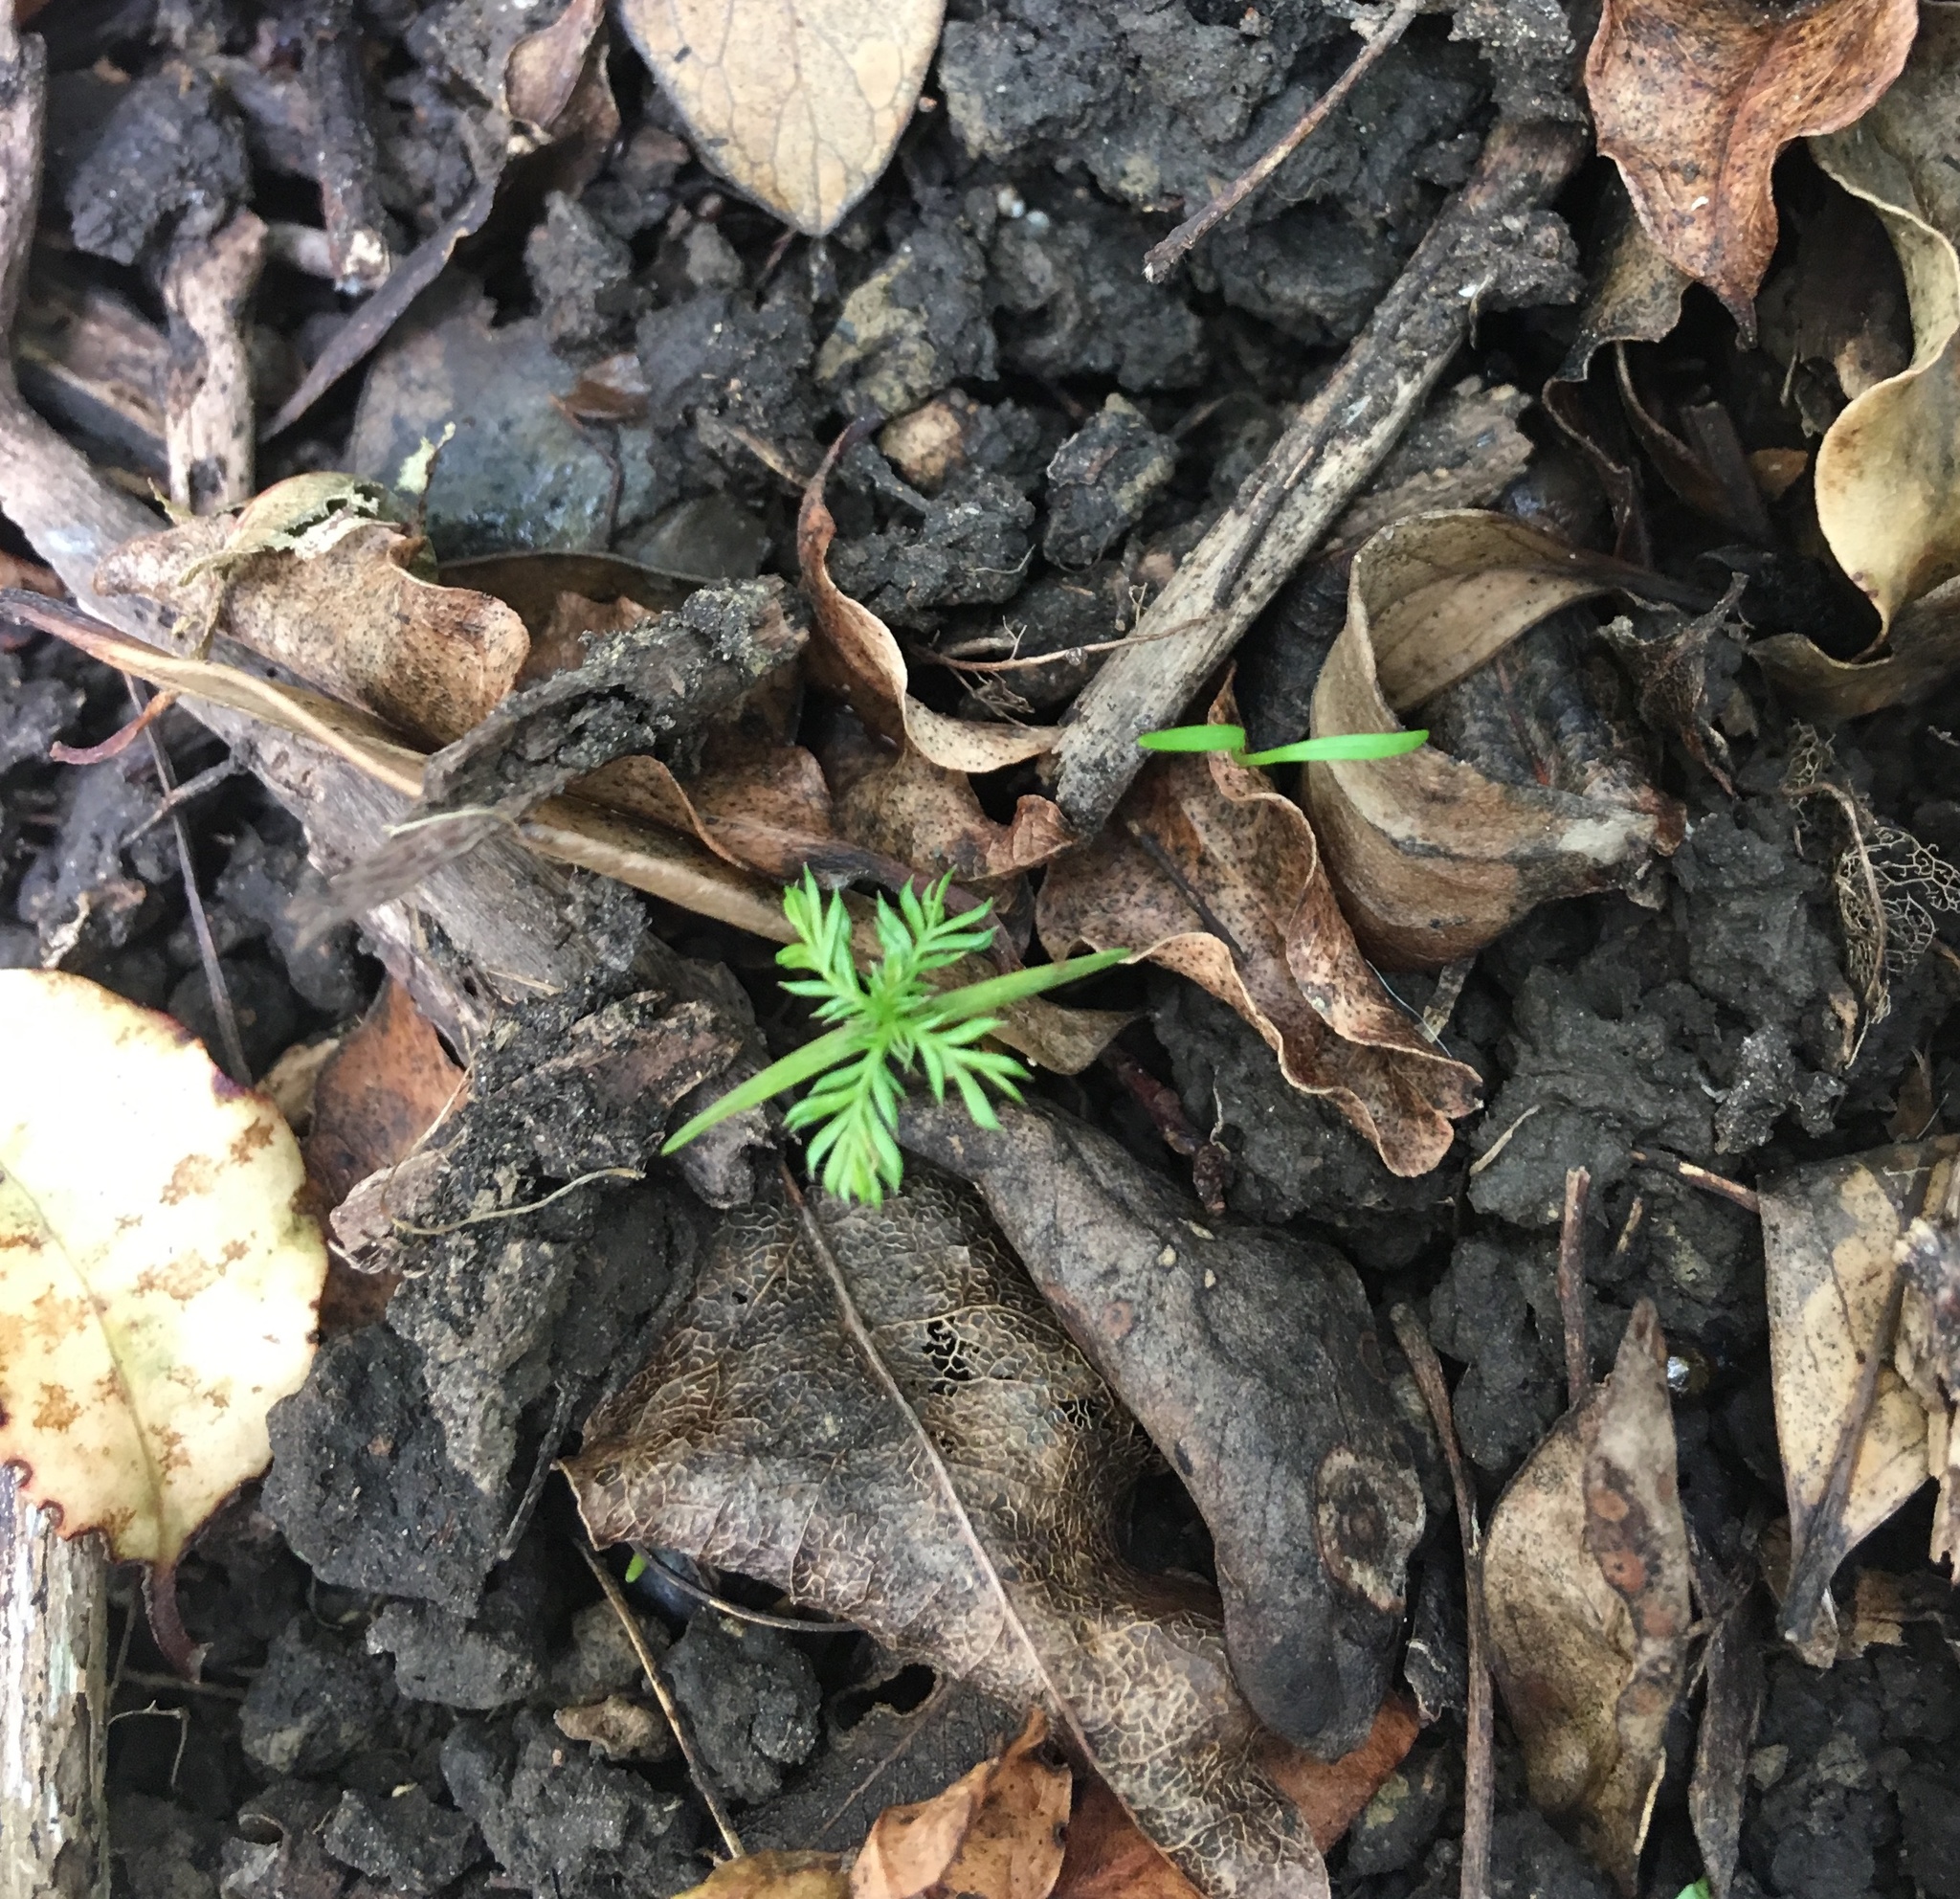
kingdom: Plantae
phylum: Tracheophyta
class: Pinopsida
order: Pinales
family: Podocarpaceae
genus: Dacrycarpus
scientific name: Dacrycarpus dacrydioides
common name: White pine
